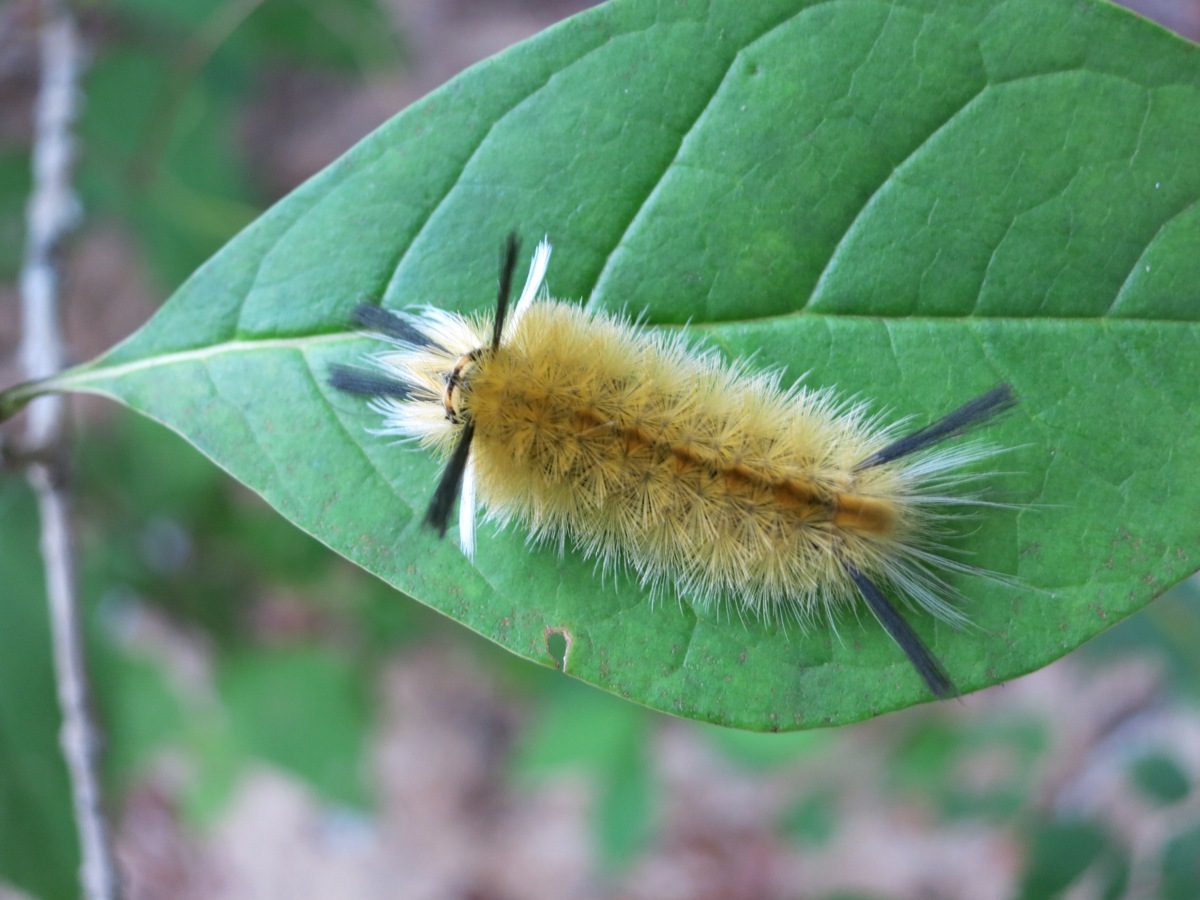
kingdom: Animalia
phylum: Arthropoda
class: Insecta
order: Lepidoptera
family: Erebidae
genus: Halysidota
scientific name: Halysidota tessellaris
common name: Banded tussock moth
